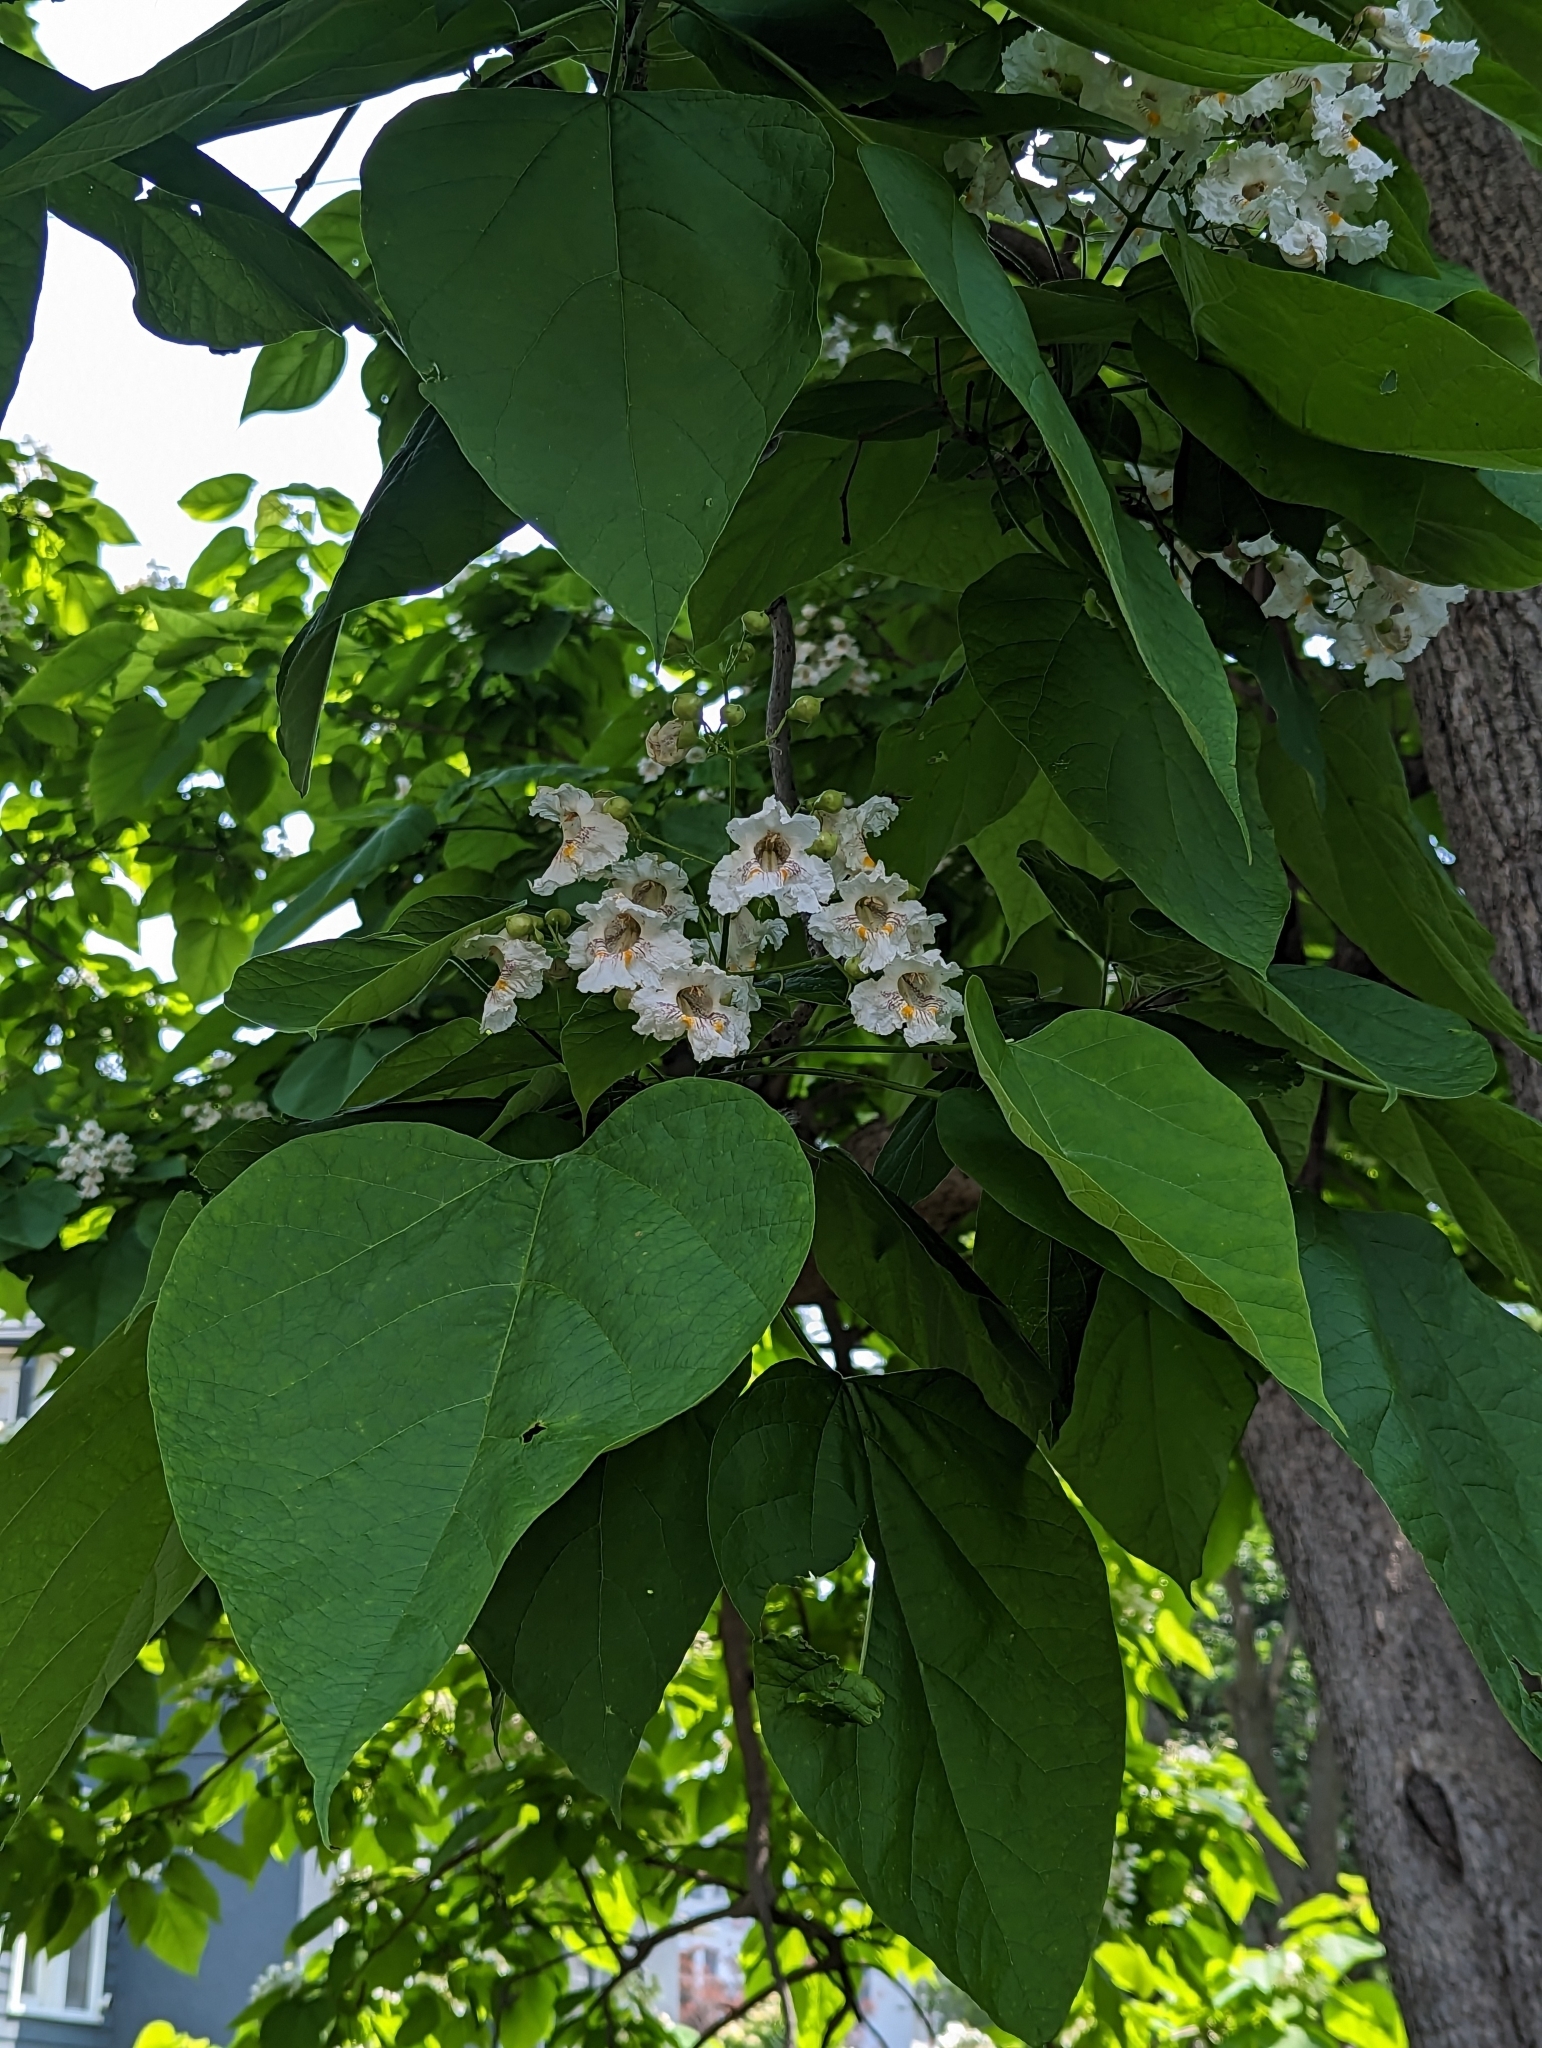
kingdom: Plantae
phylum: Tracheophyta
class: Magnoliopsida
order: Lamiales
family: Bignoniaceae
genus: Catalpa
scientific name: Catalpa speciosa
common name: Northern catalpa
